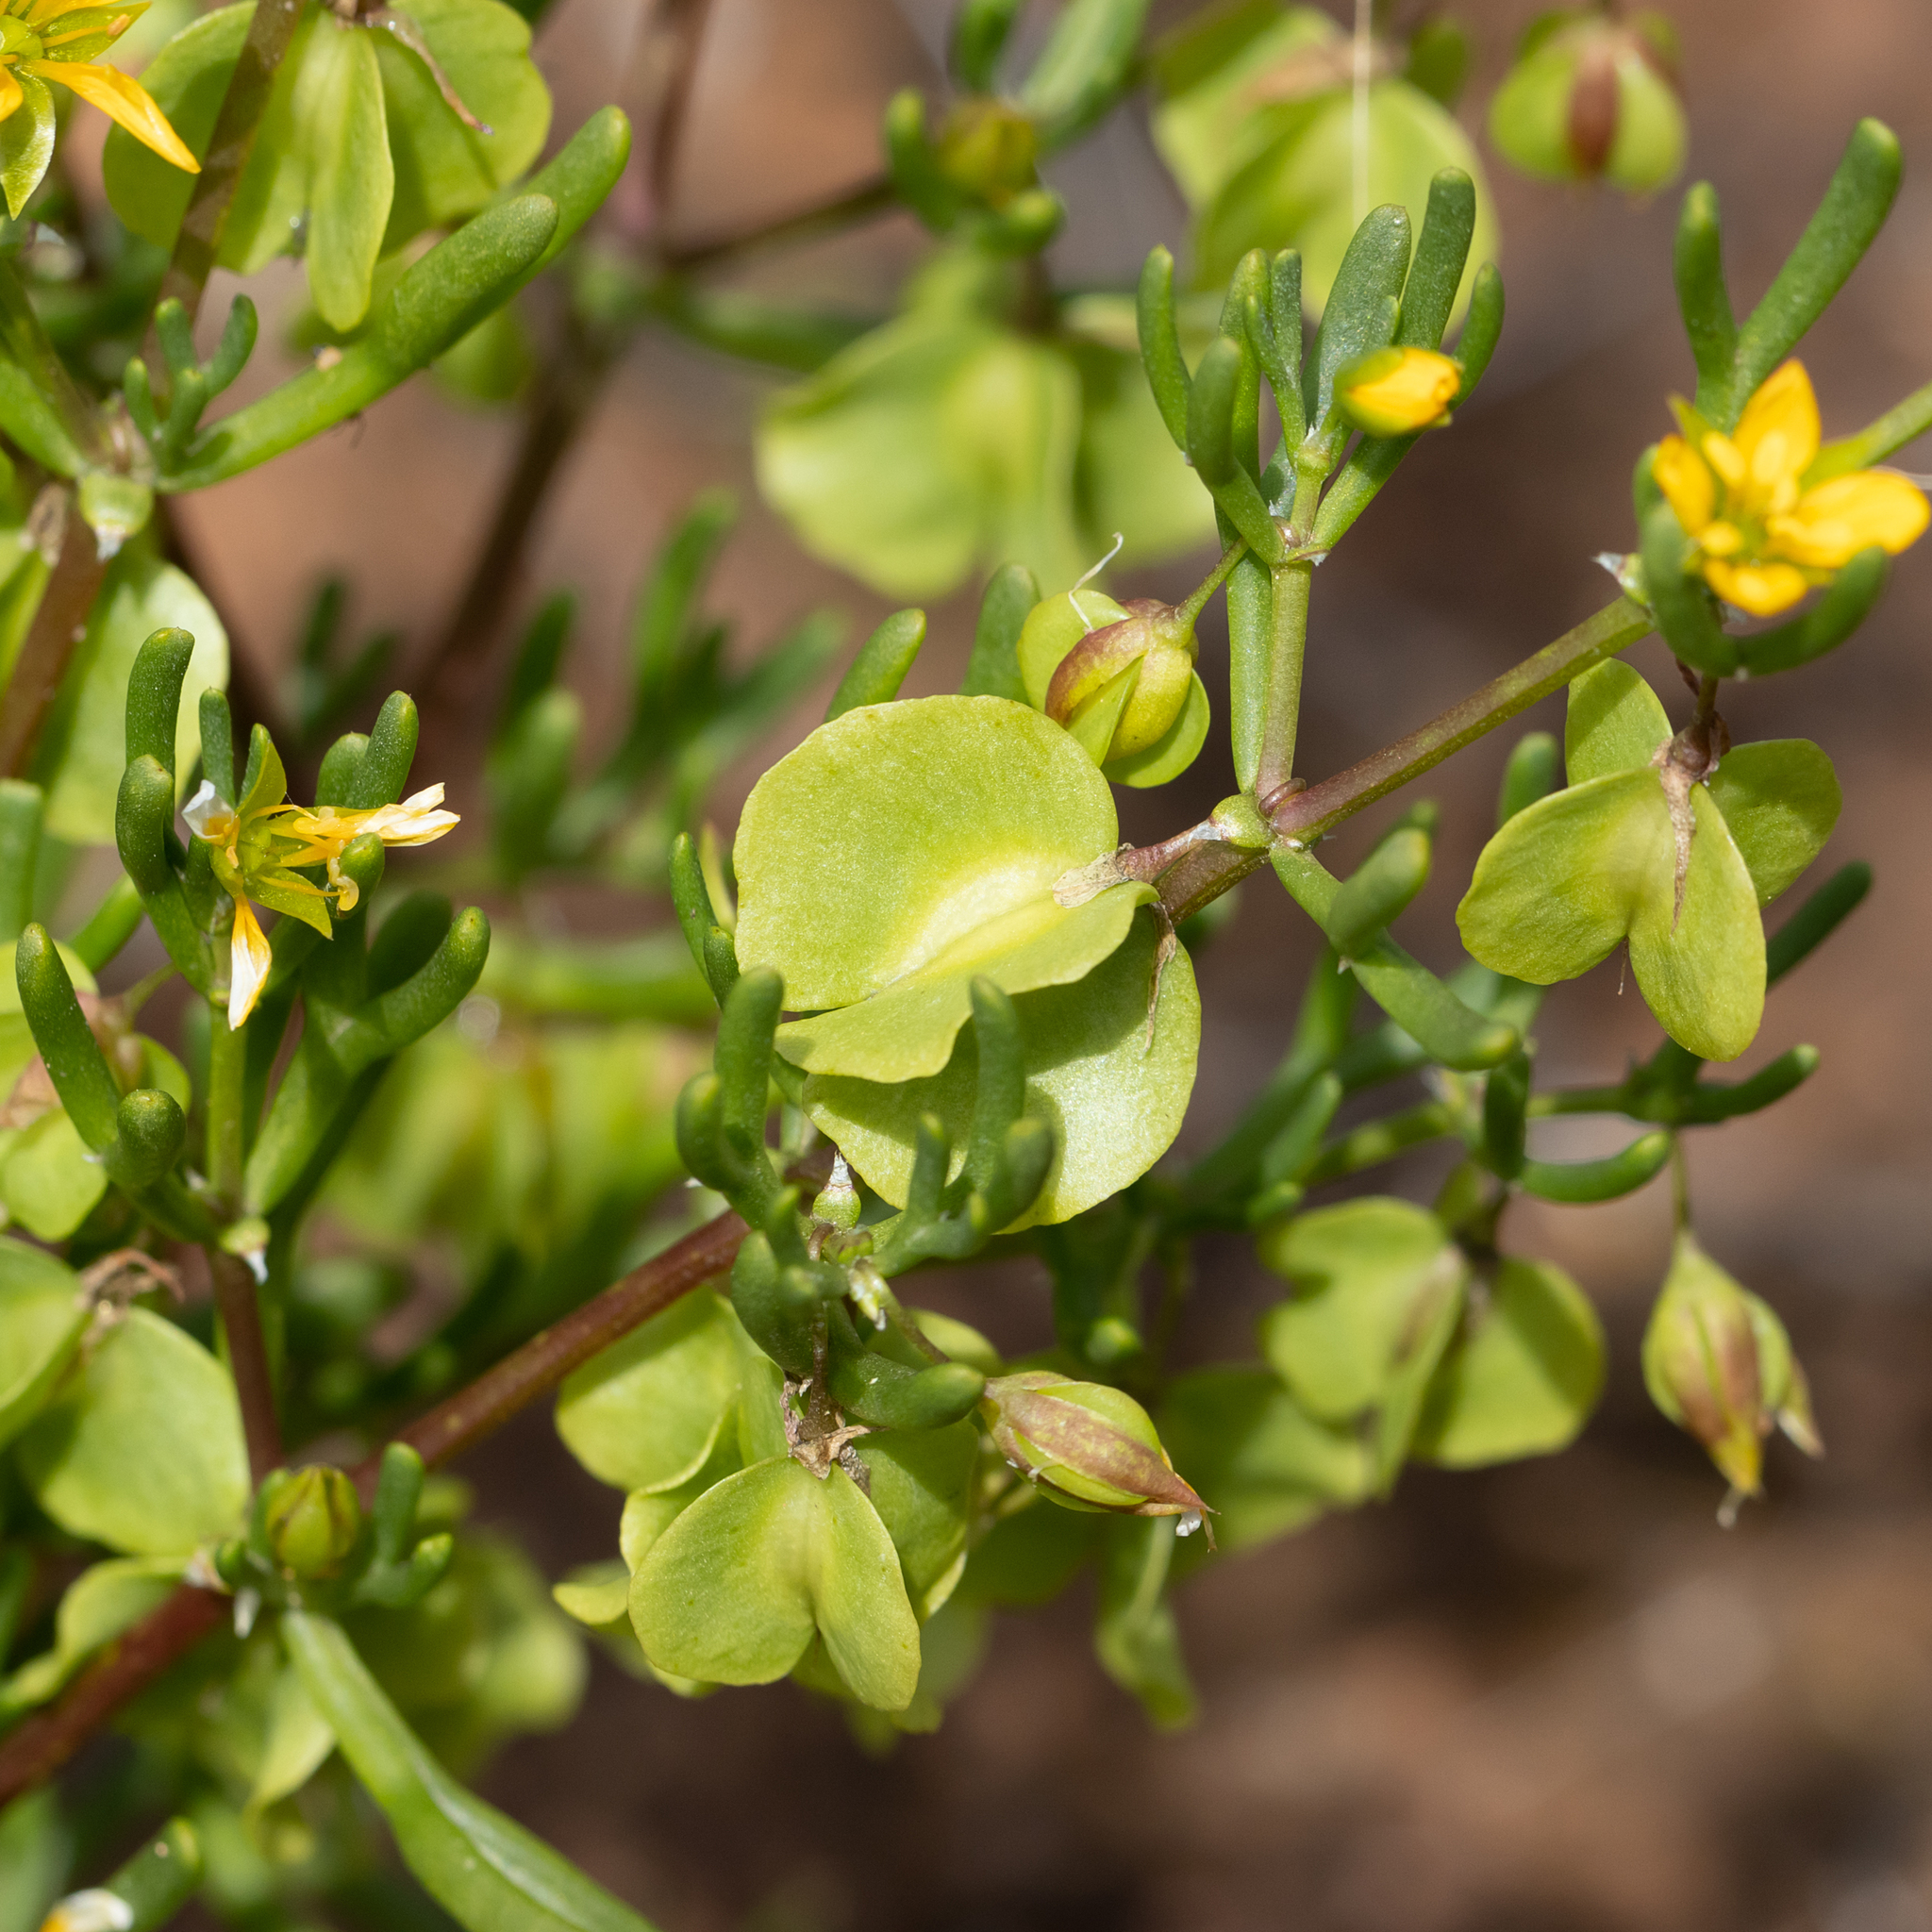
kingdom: Plantae
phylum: Tracheophyta
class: Magnoliopsida
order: Zygophyllales
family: Zygophyllaceae
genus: Roepera
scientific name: Roepera aurantiaca
